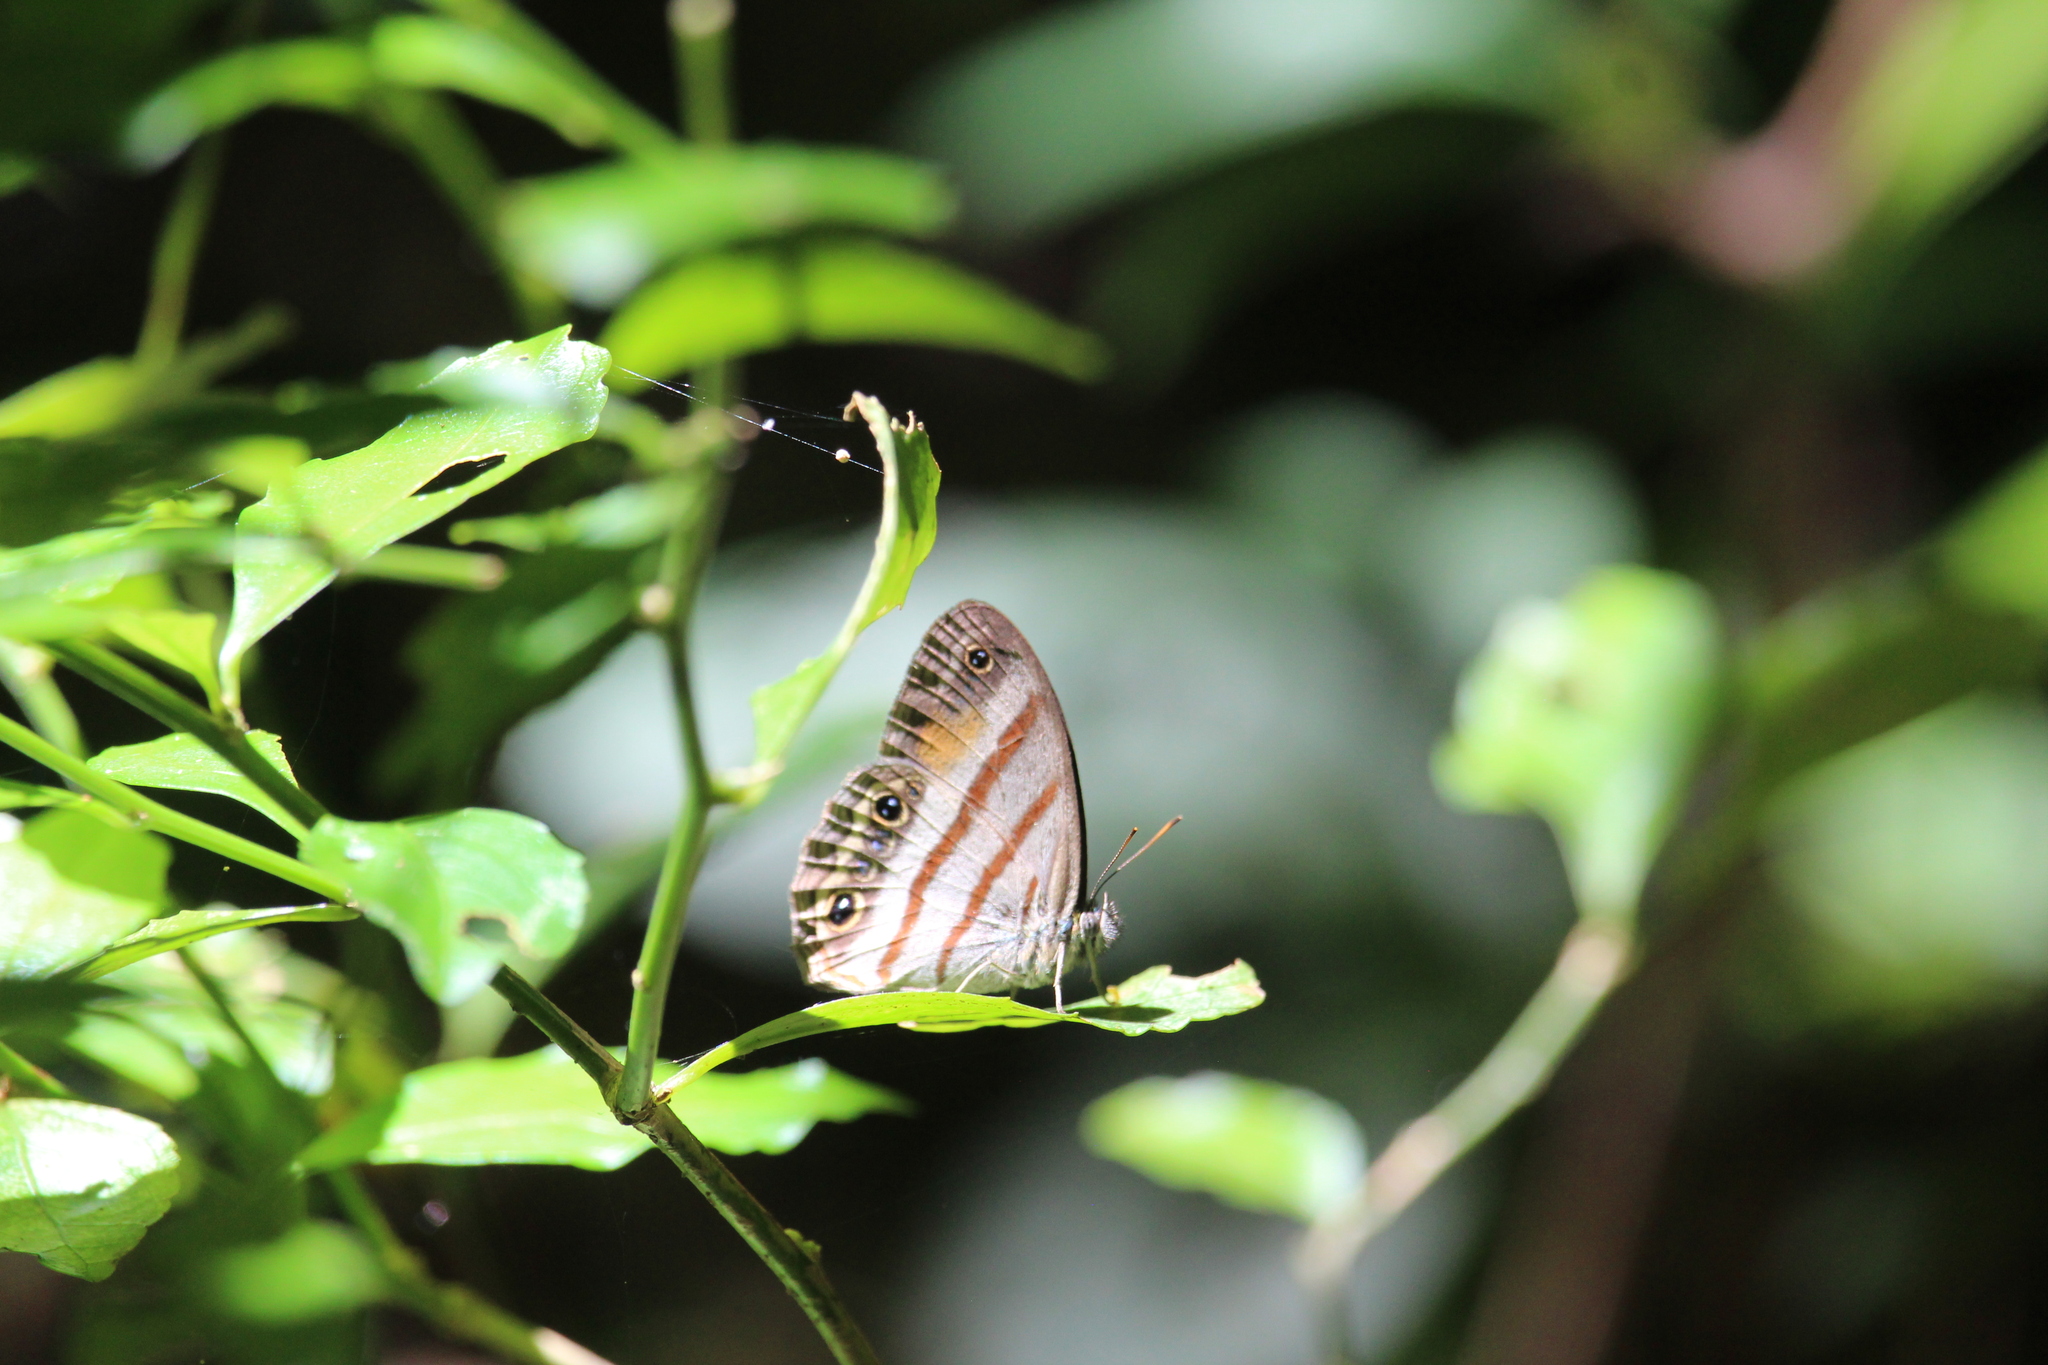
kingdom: Animalia
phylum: Arthropoda
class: Insecta
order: Lepidoptera
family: Nymphalidae
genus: Paryphthimoides
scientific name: Paryphthimoides
